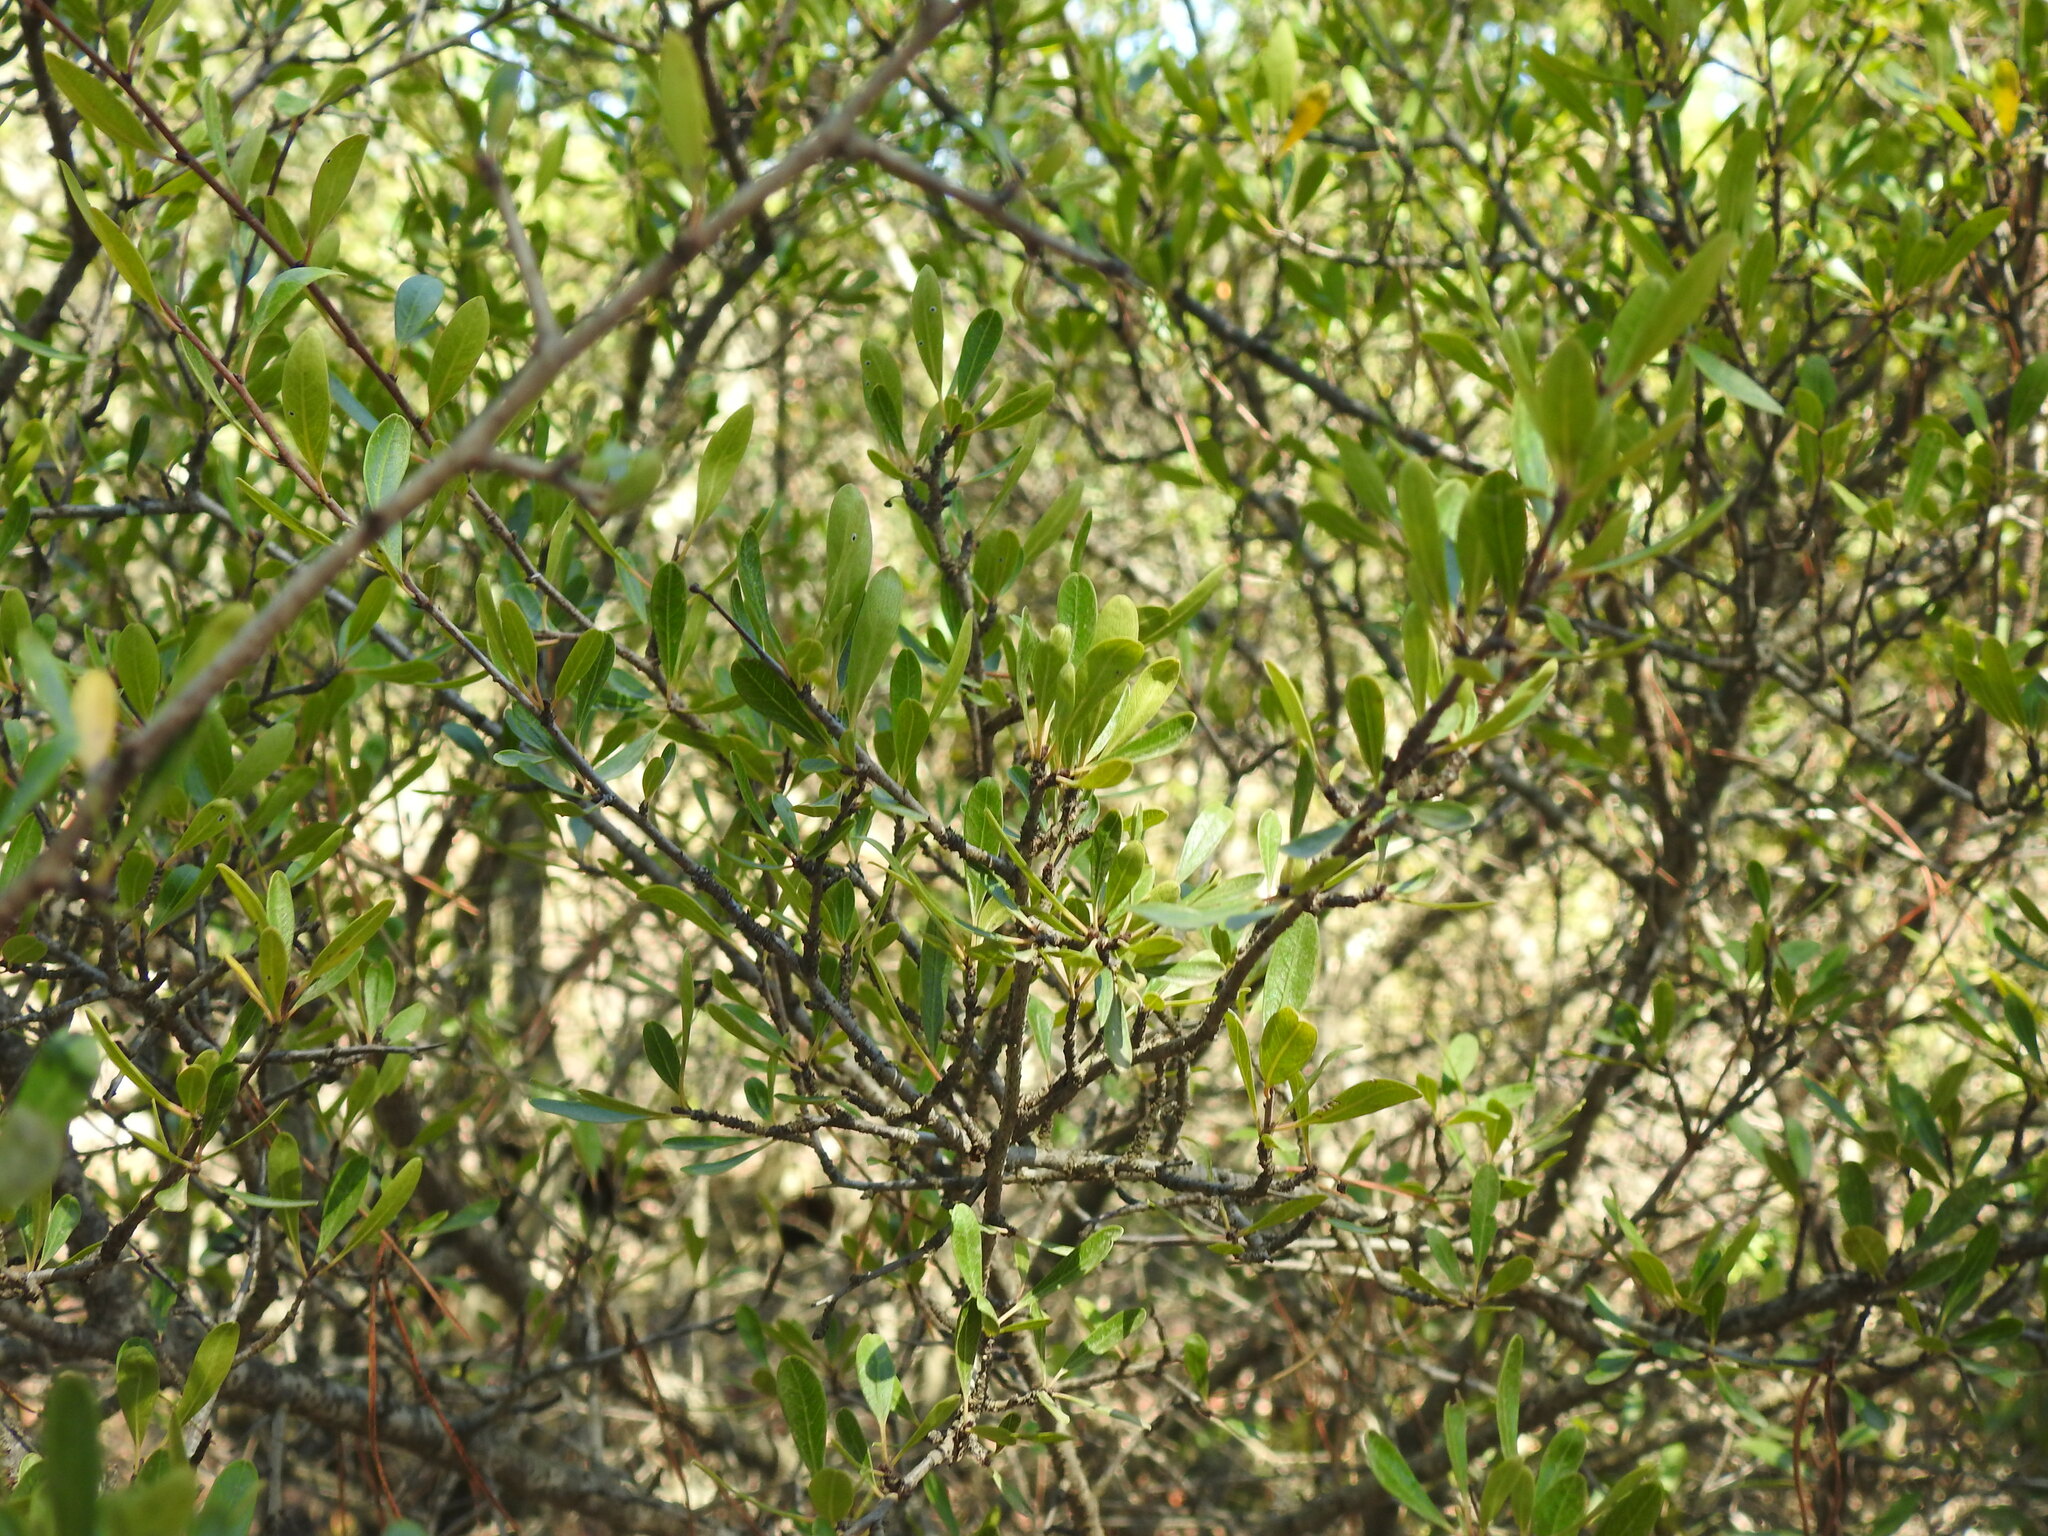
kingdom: Plantae
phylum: Tracheophyta
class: Magnoliopsida
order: Rosales
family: Rhamnaceae
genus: Rhamnus
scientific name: Rhamnus oleoides
